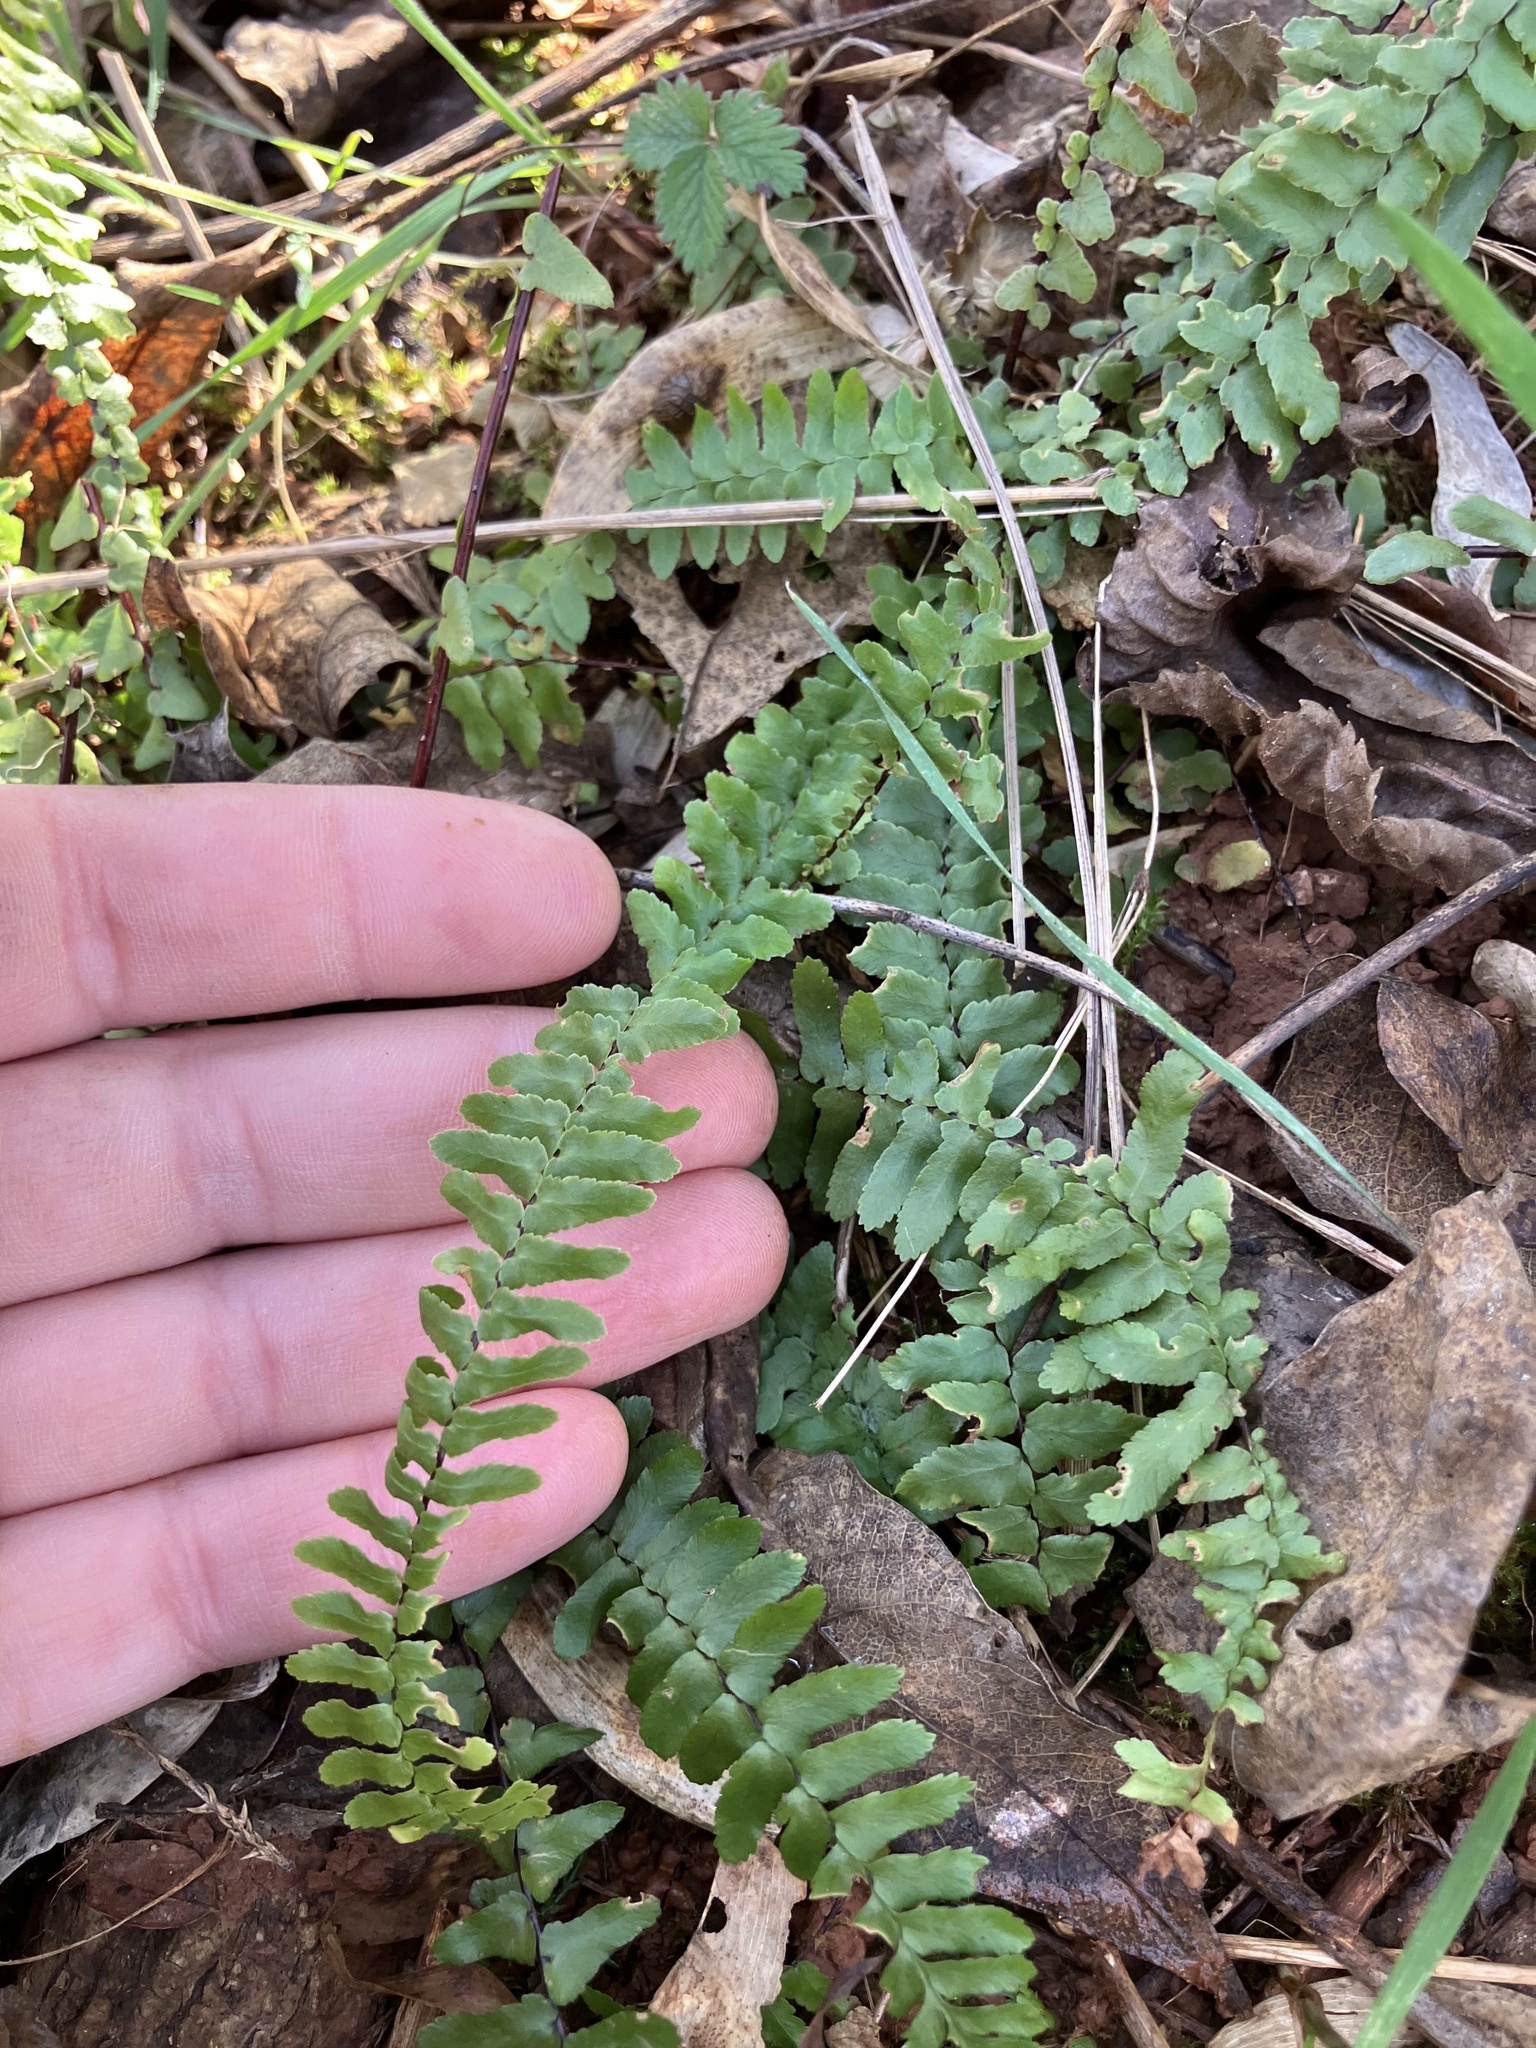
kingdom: Plantae
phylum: Tracheophyta
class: Polypodiopsida
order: Polypodiales
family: Aspleniaceae
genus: Asplenium
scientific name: Asplenium platyneuron
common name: Ebony spleenwort
